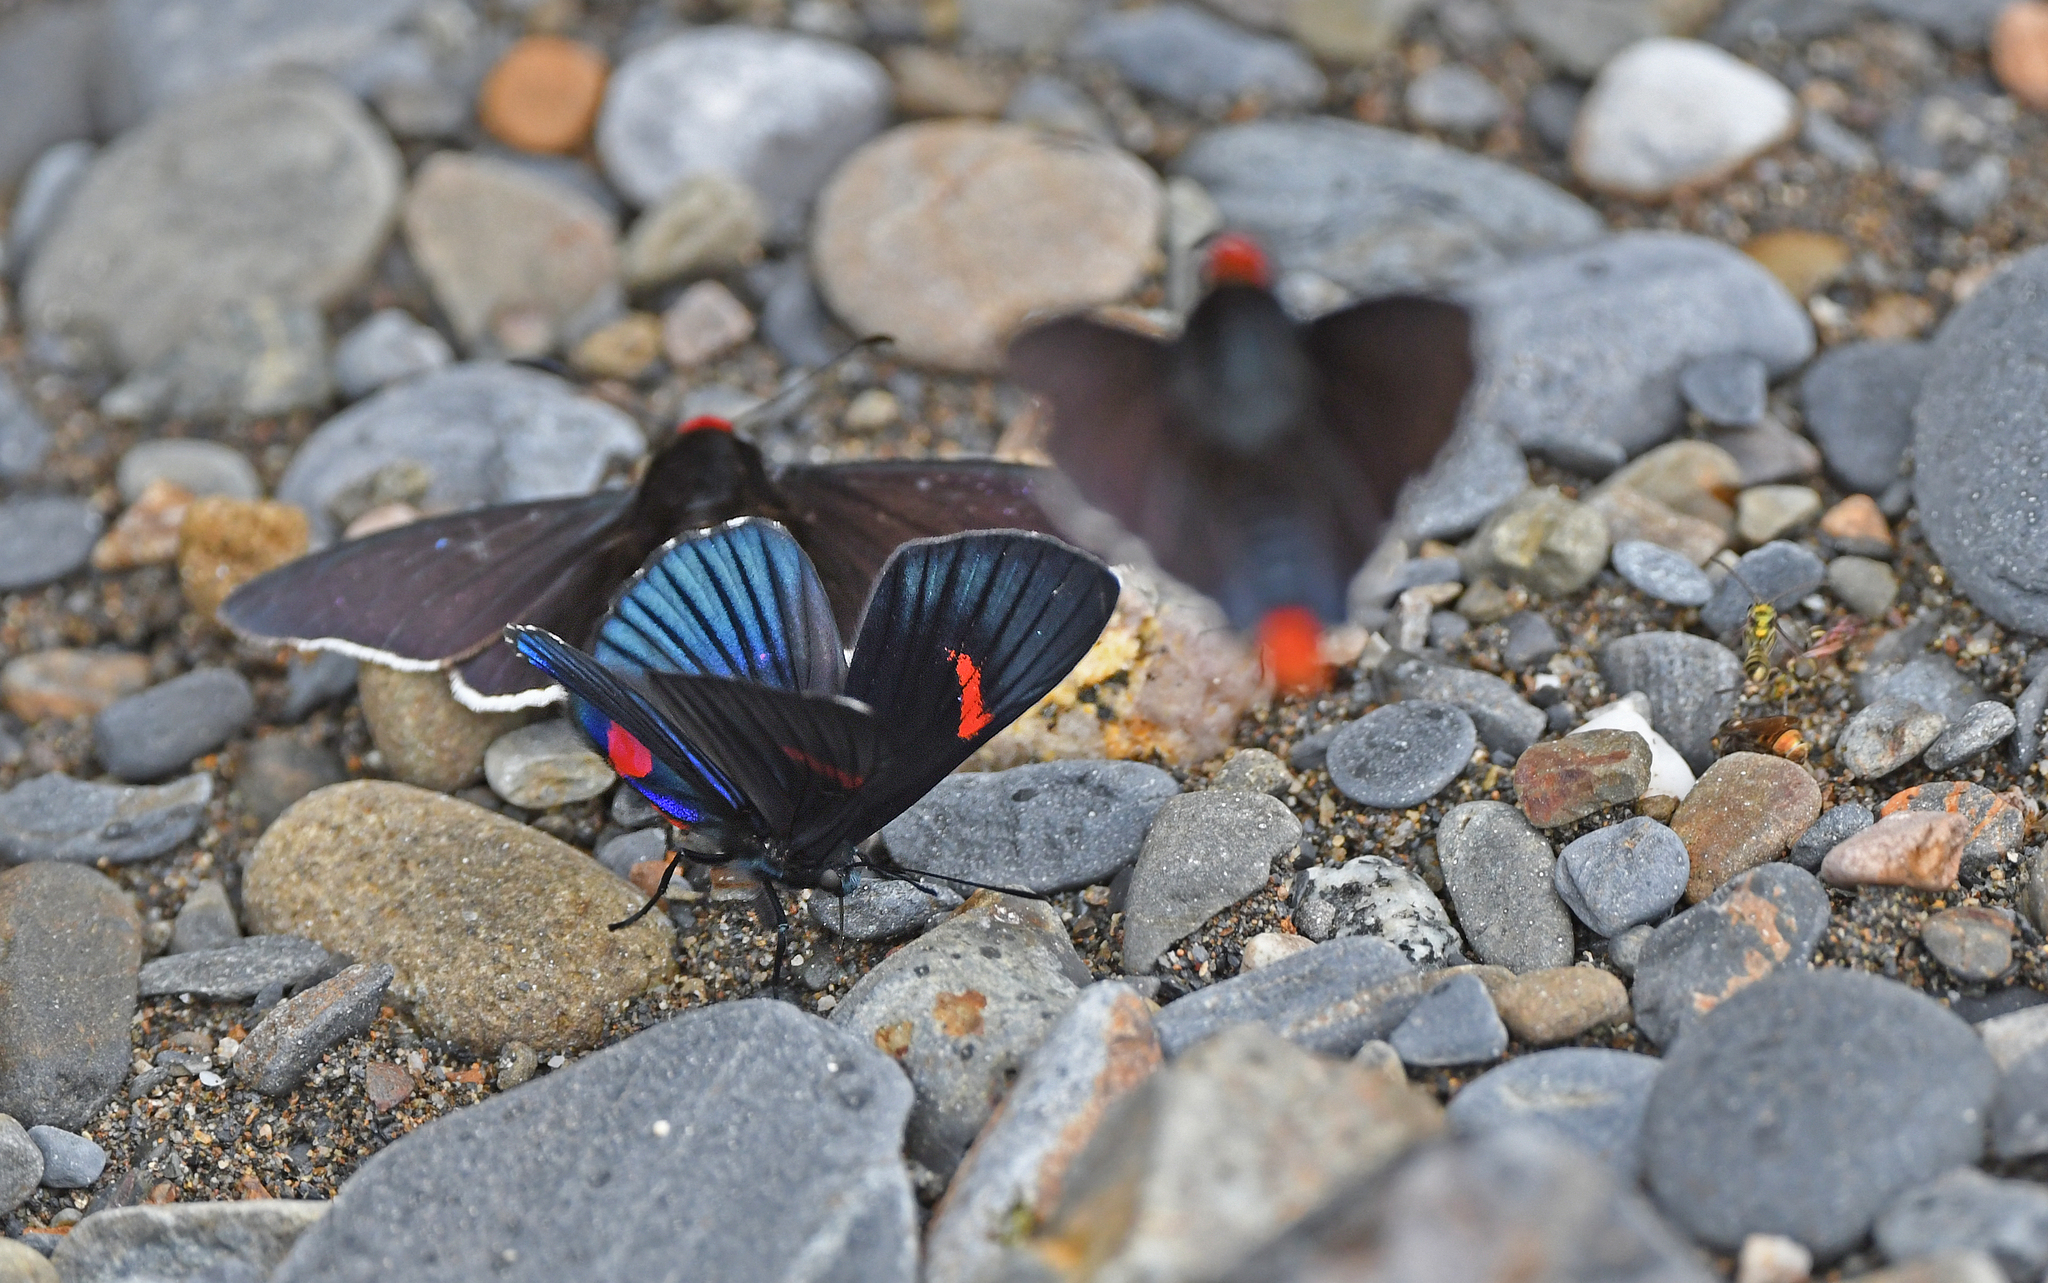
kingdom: Animalia
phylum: Arthropoda
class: Insecta
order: Lepidoptera
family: Lycaenidae
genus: Necyria
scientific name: Necyria bellona
